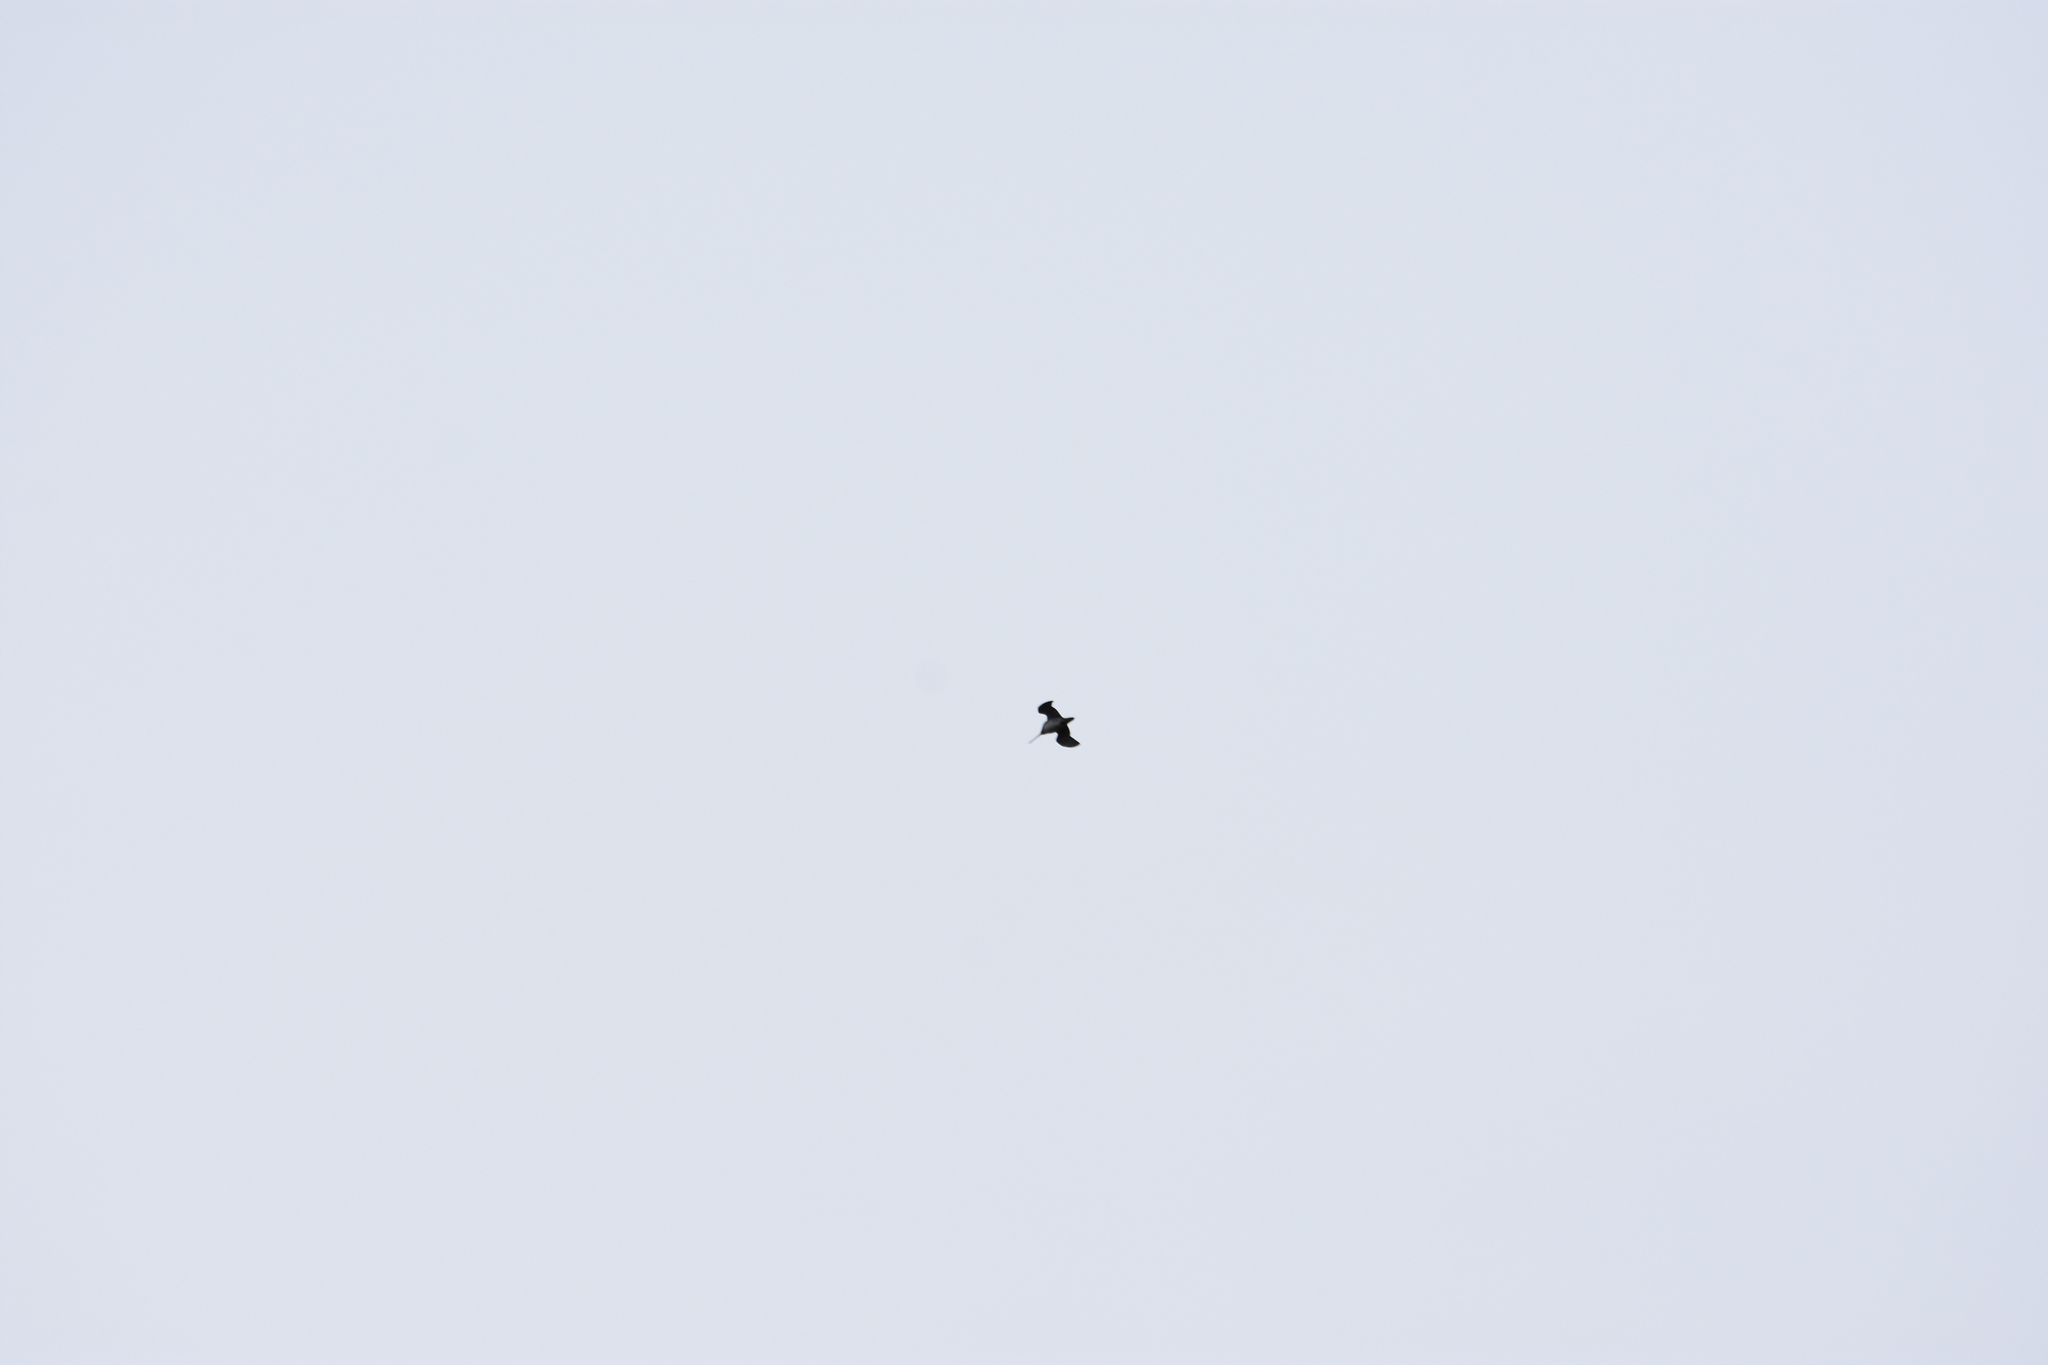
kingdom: Animalia
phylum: Chordata
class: Aves
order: Charadriiformes
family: Scolopacidae
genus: Gallinago
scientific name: Gallinago delicata
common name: Wilson's snipe
